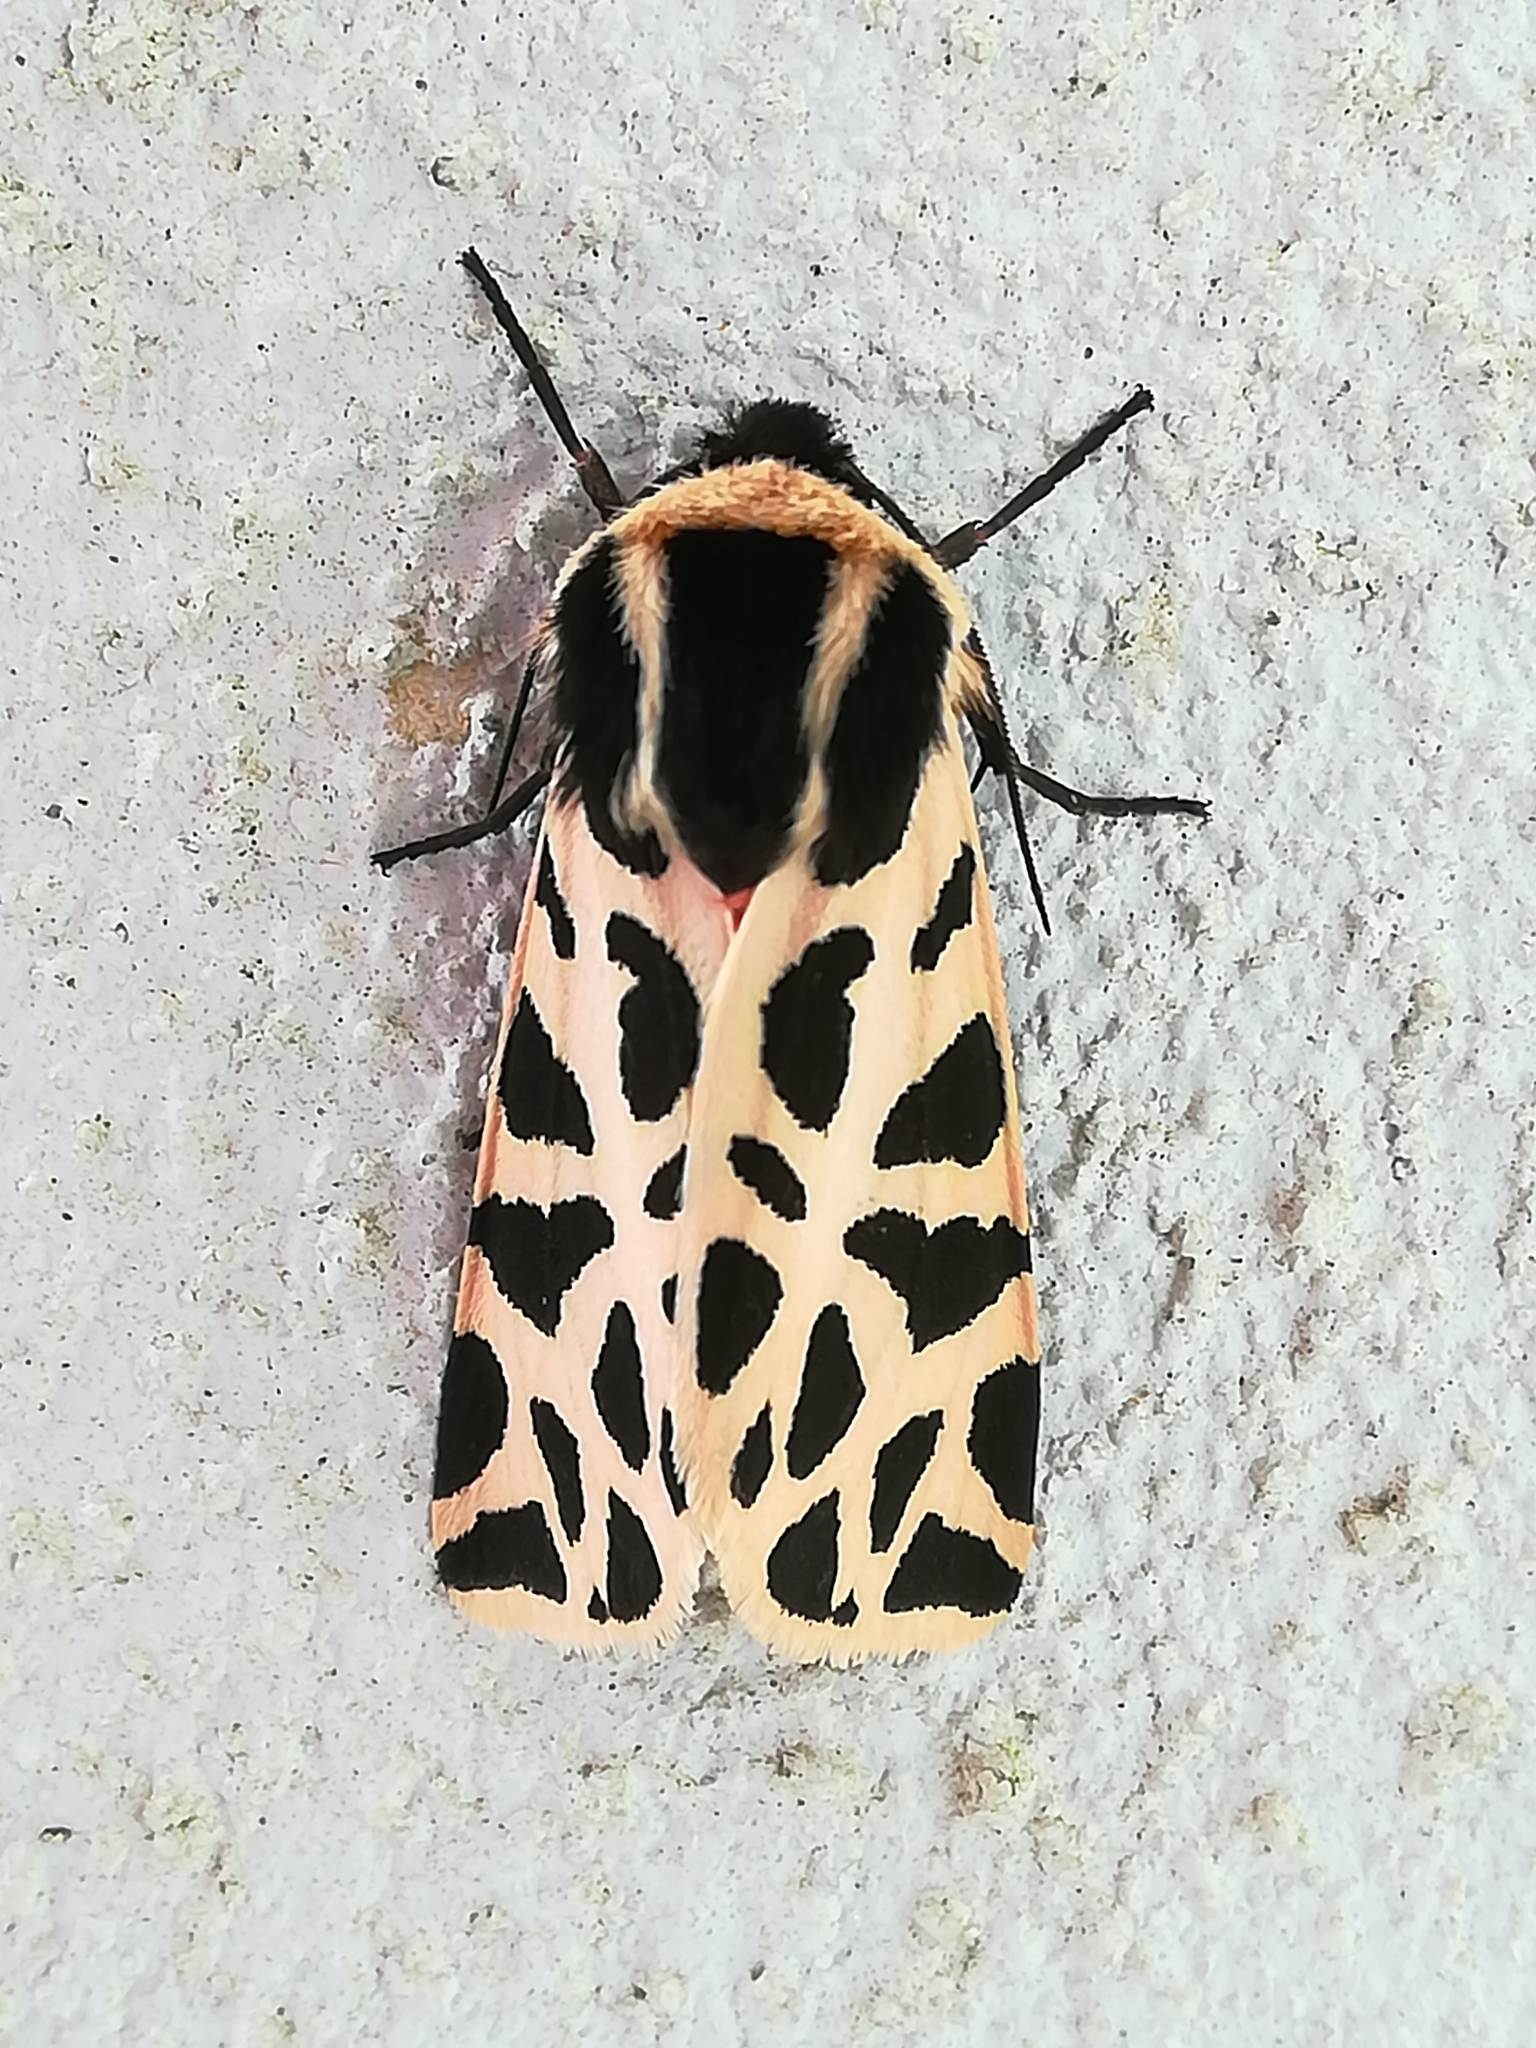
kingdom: Animalia
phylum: Arthropoda
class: Insecta
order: Lepidoptera
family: Erebidae
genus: Cymbalophora
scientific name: Cymbalophora pudica
